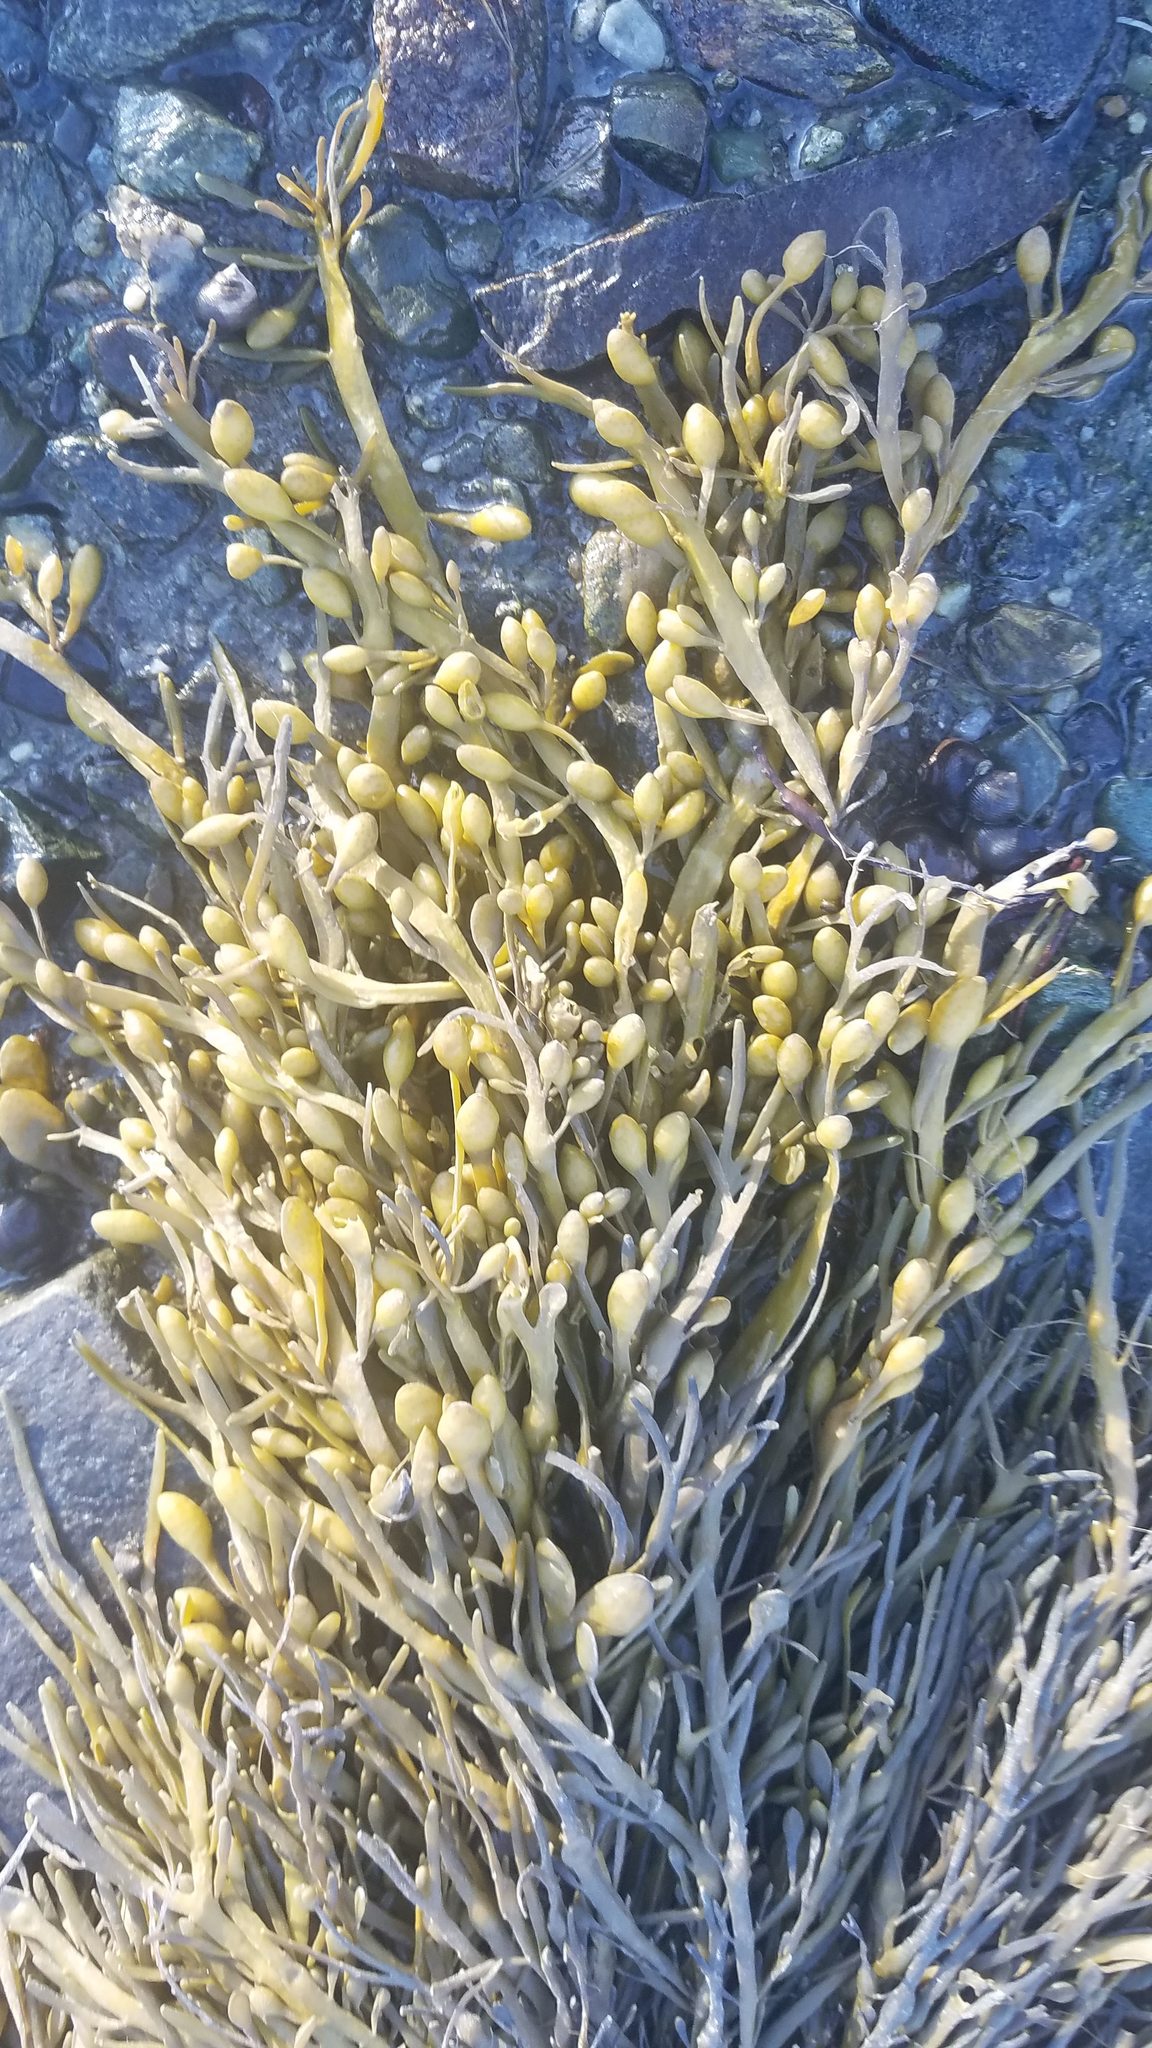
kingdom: Chromista
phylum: Ochrophyta
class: Phaeophyceae
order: Fucales
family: Fucaceae
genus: Ascophyllum
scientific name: Ascophyllum nodosum
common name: Knotted wrack
